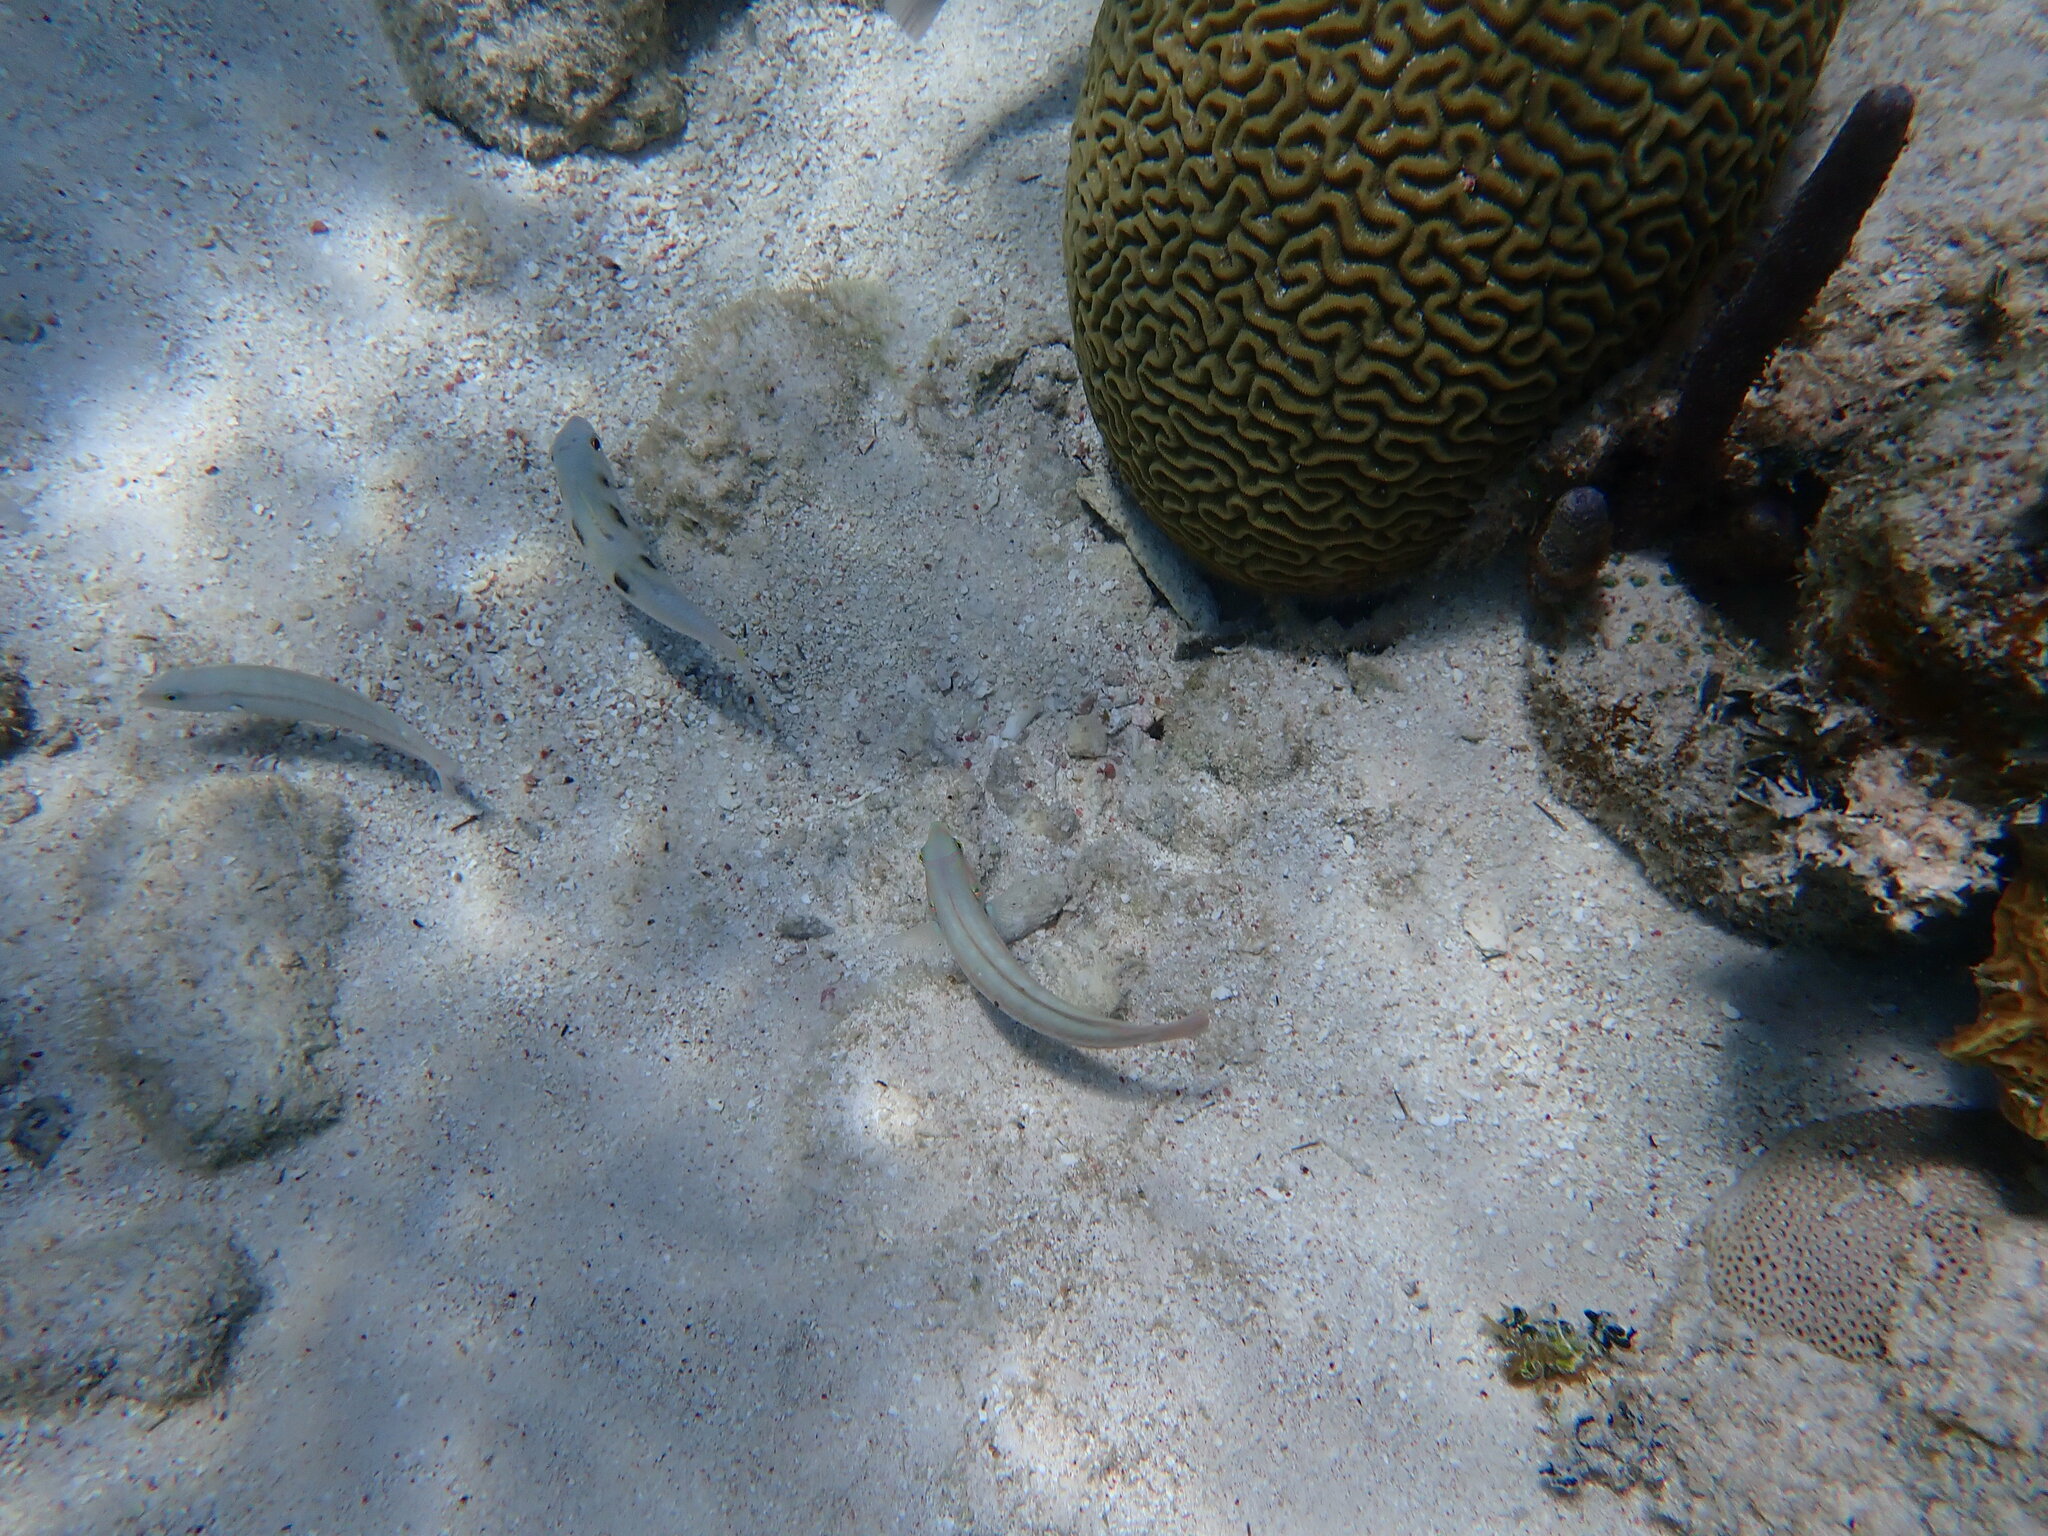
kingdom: Animalia
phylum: Chordata
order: Perciformes
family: Mullidae
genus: Pseudupeneus
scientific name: Pseudupeneus maculatus
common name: Spotted goatfish
